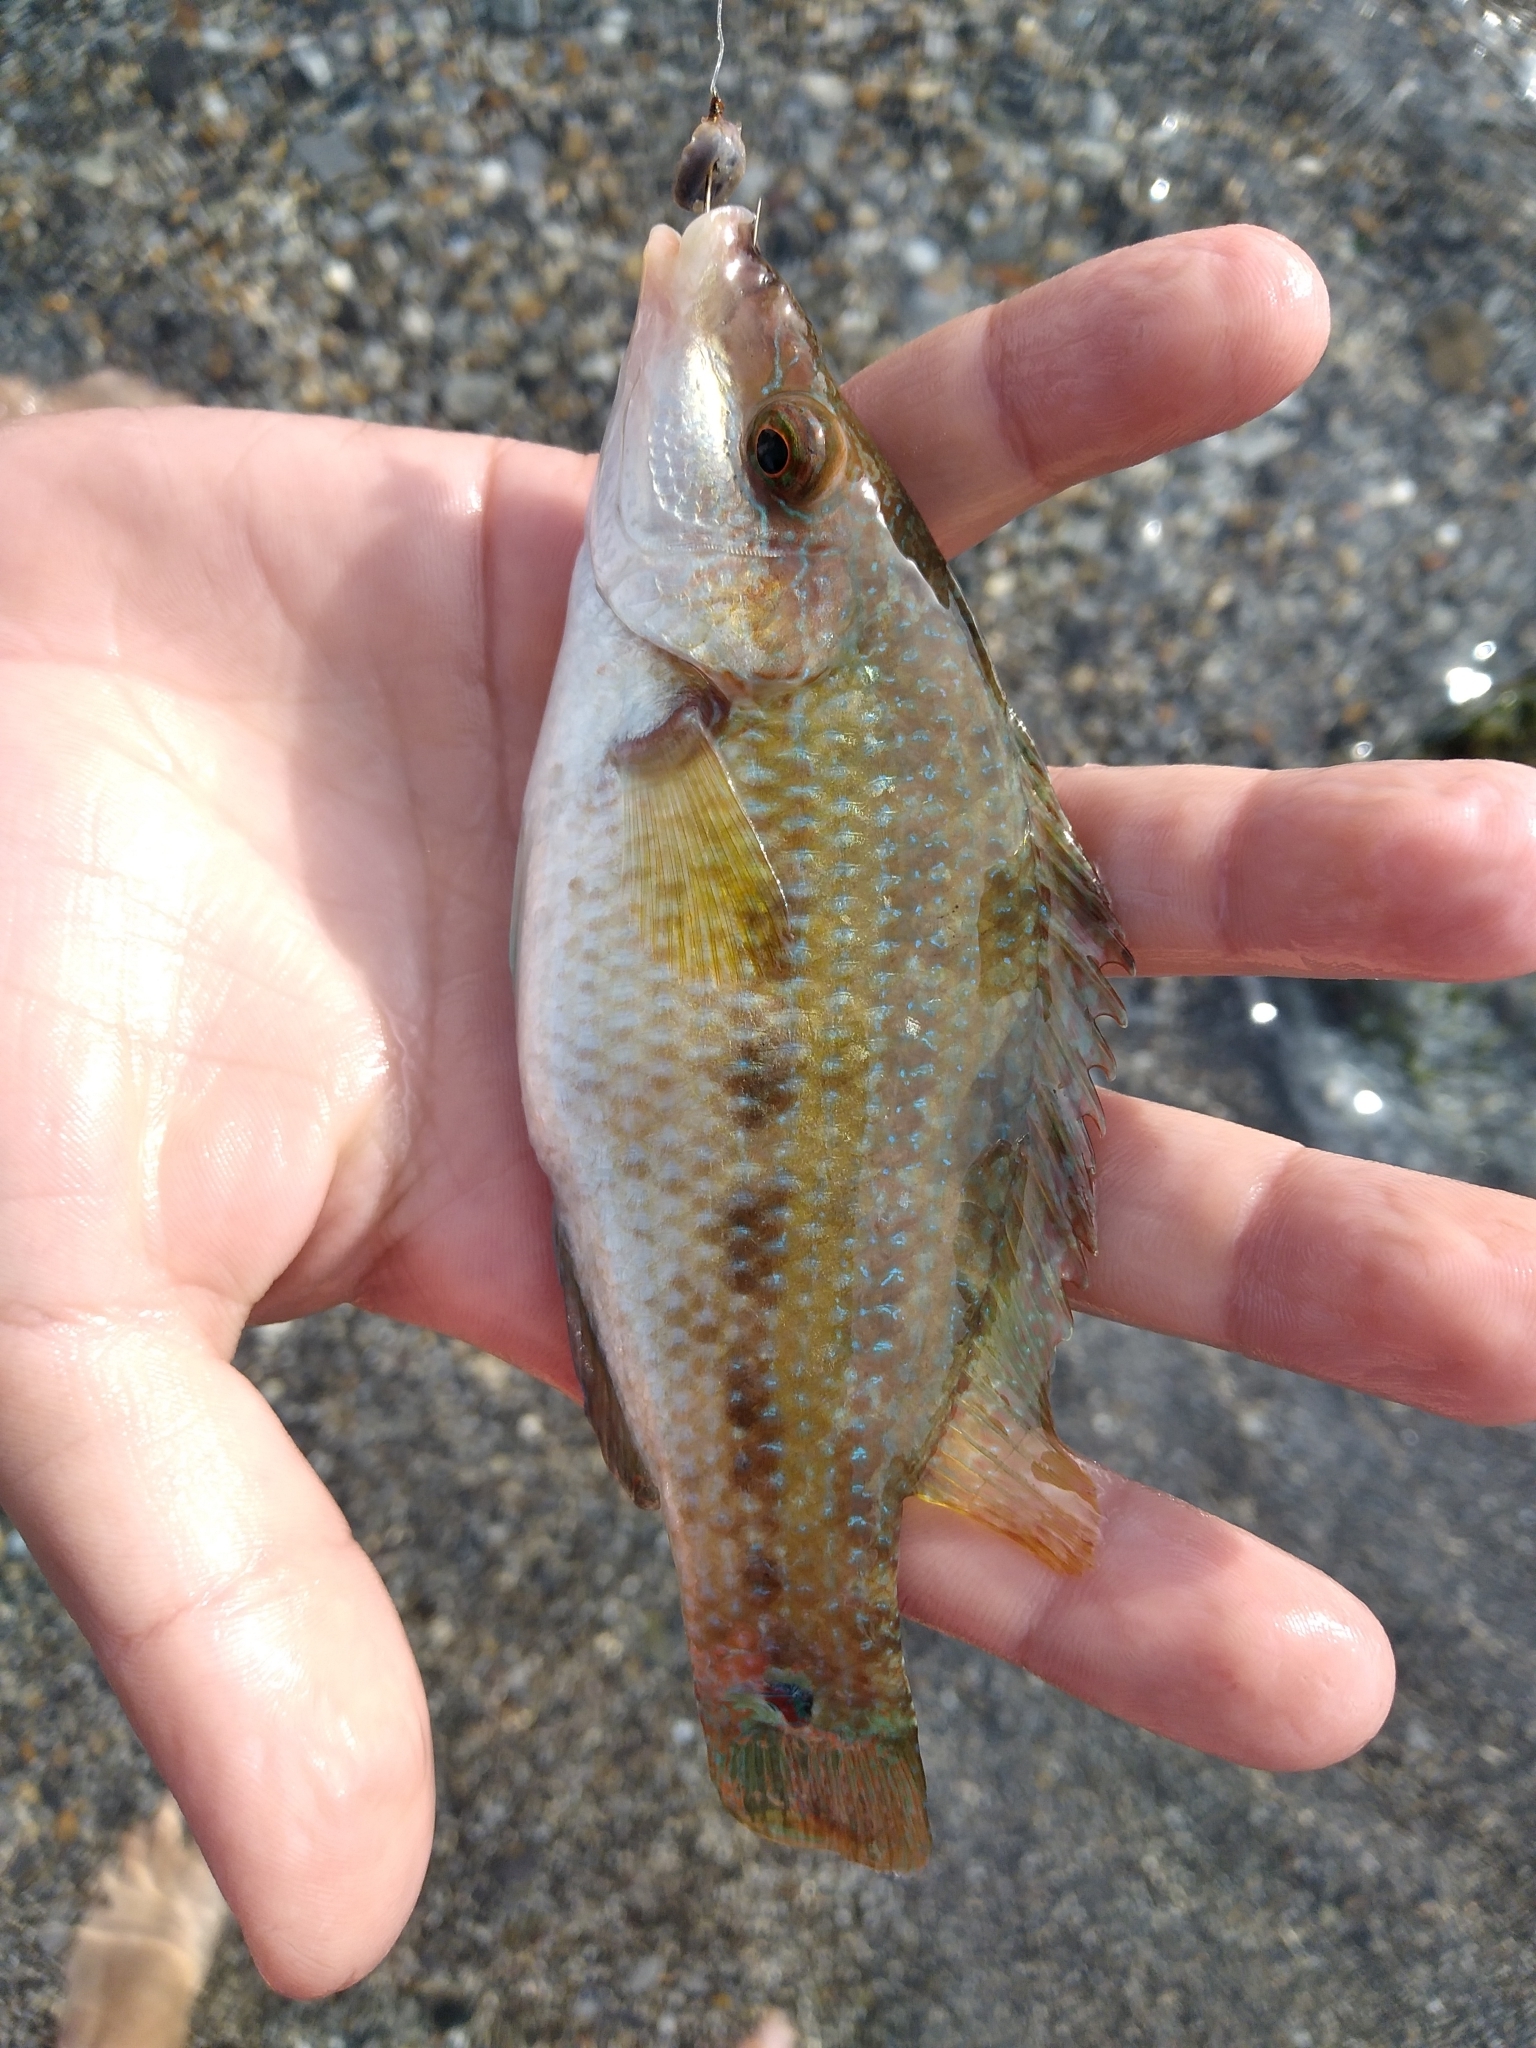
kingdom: Animalia
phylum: Chordata
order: Perciformes
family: Labridae
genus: Symphodus
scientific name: Symphodus tinca
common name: Peacock wrasse
